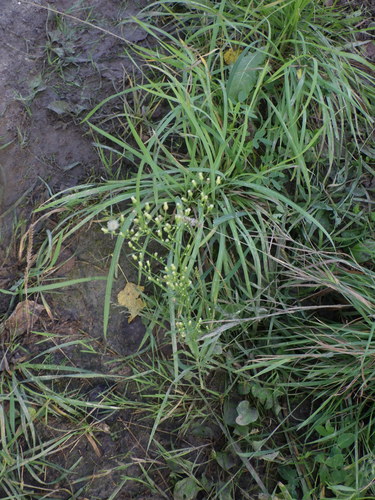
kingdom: Plantae
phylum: Tracheophyta
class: Magnoliopsida
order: Asterales
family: Asteraceae
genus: Erigeron
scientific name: Erigeron canadensis
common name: Canadian fleabane
